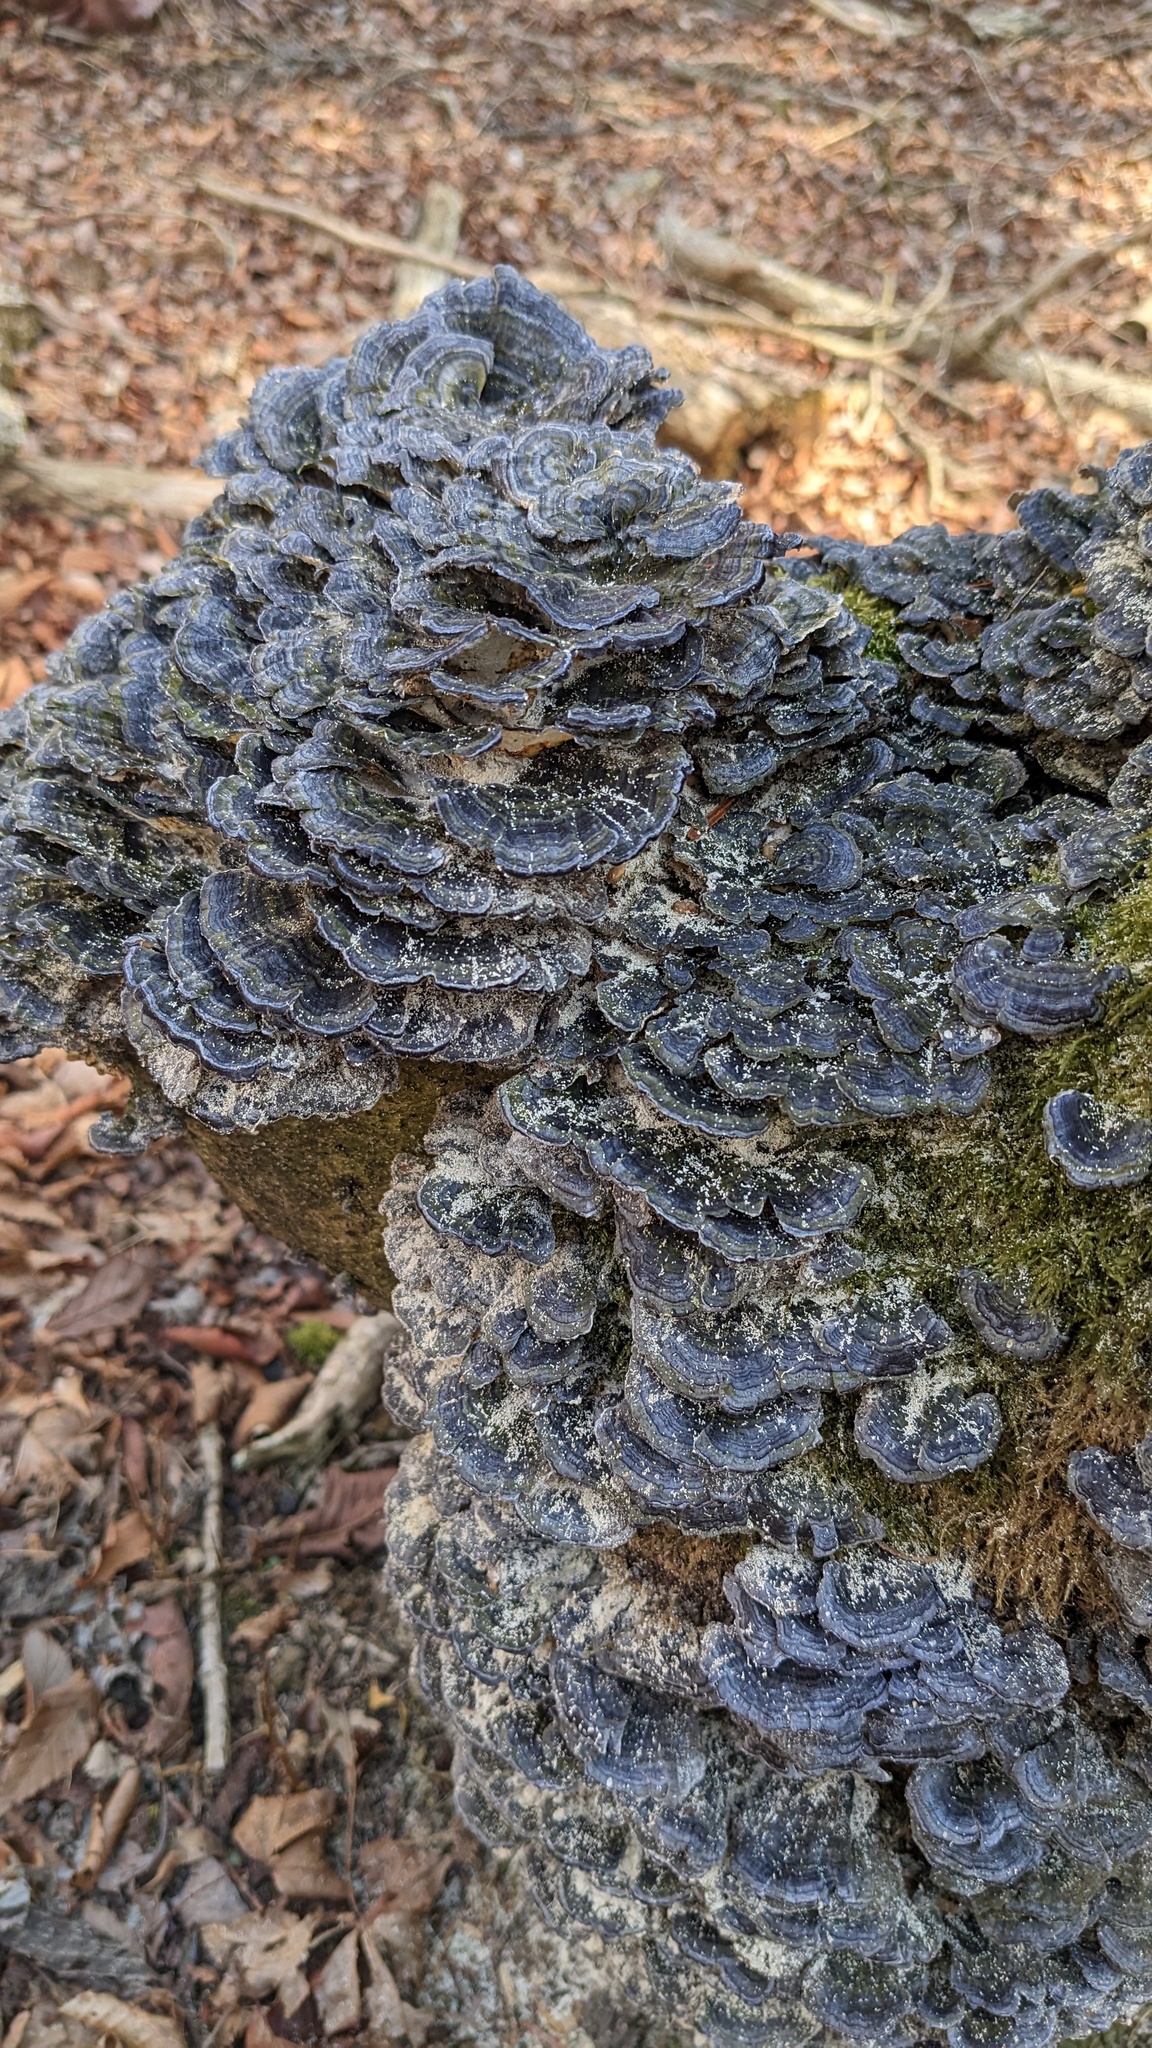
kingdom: Fungi
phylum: Basidiomycota
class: Agaricomycetes
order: Polyporales
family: Polyporaceae
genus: Trametes
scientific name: Trametes versicolor
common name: Turkeytail
